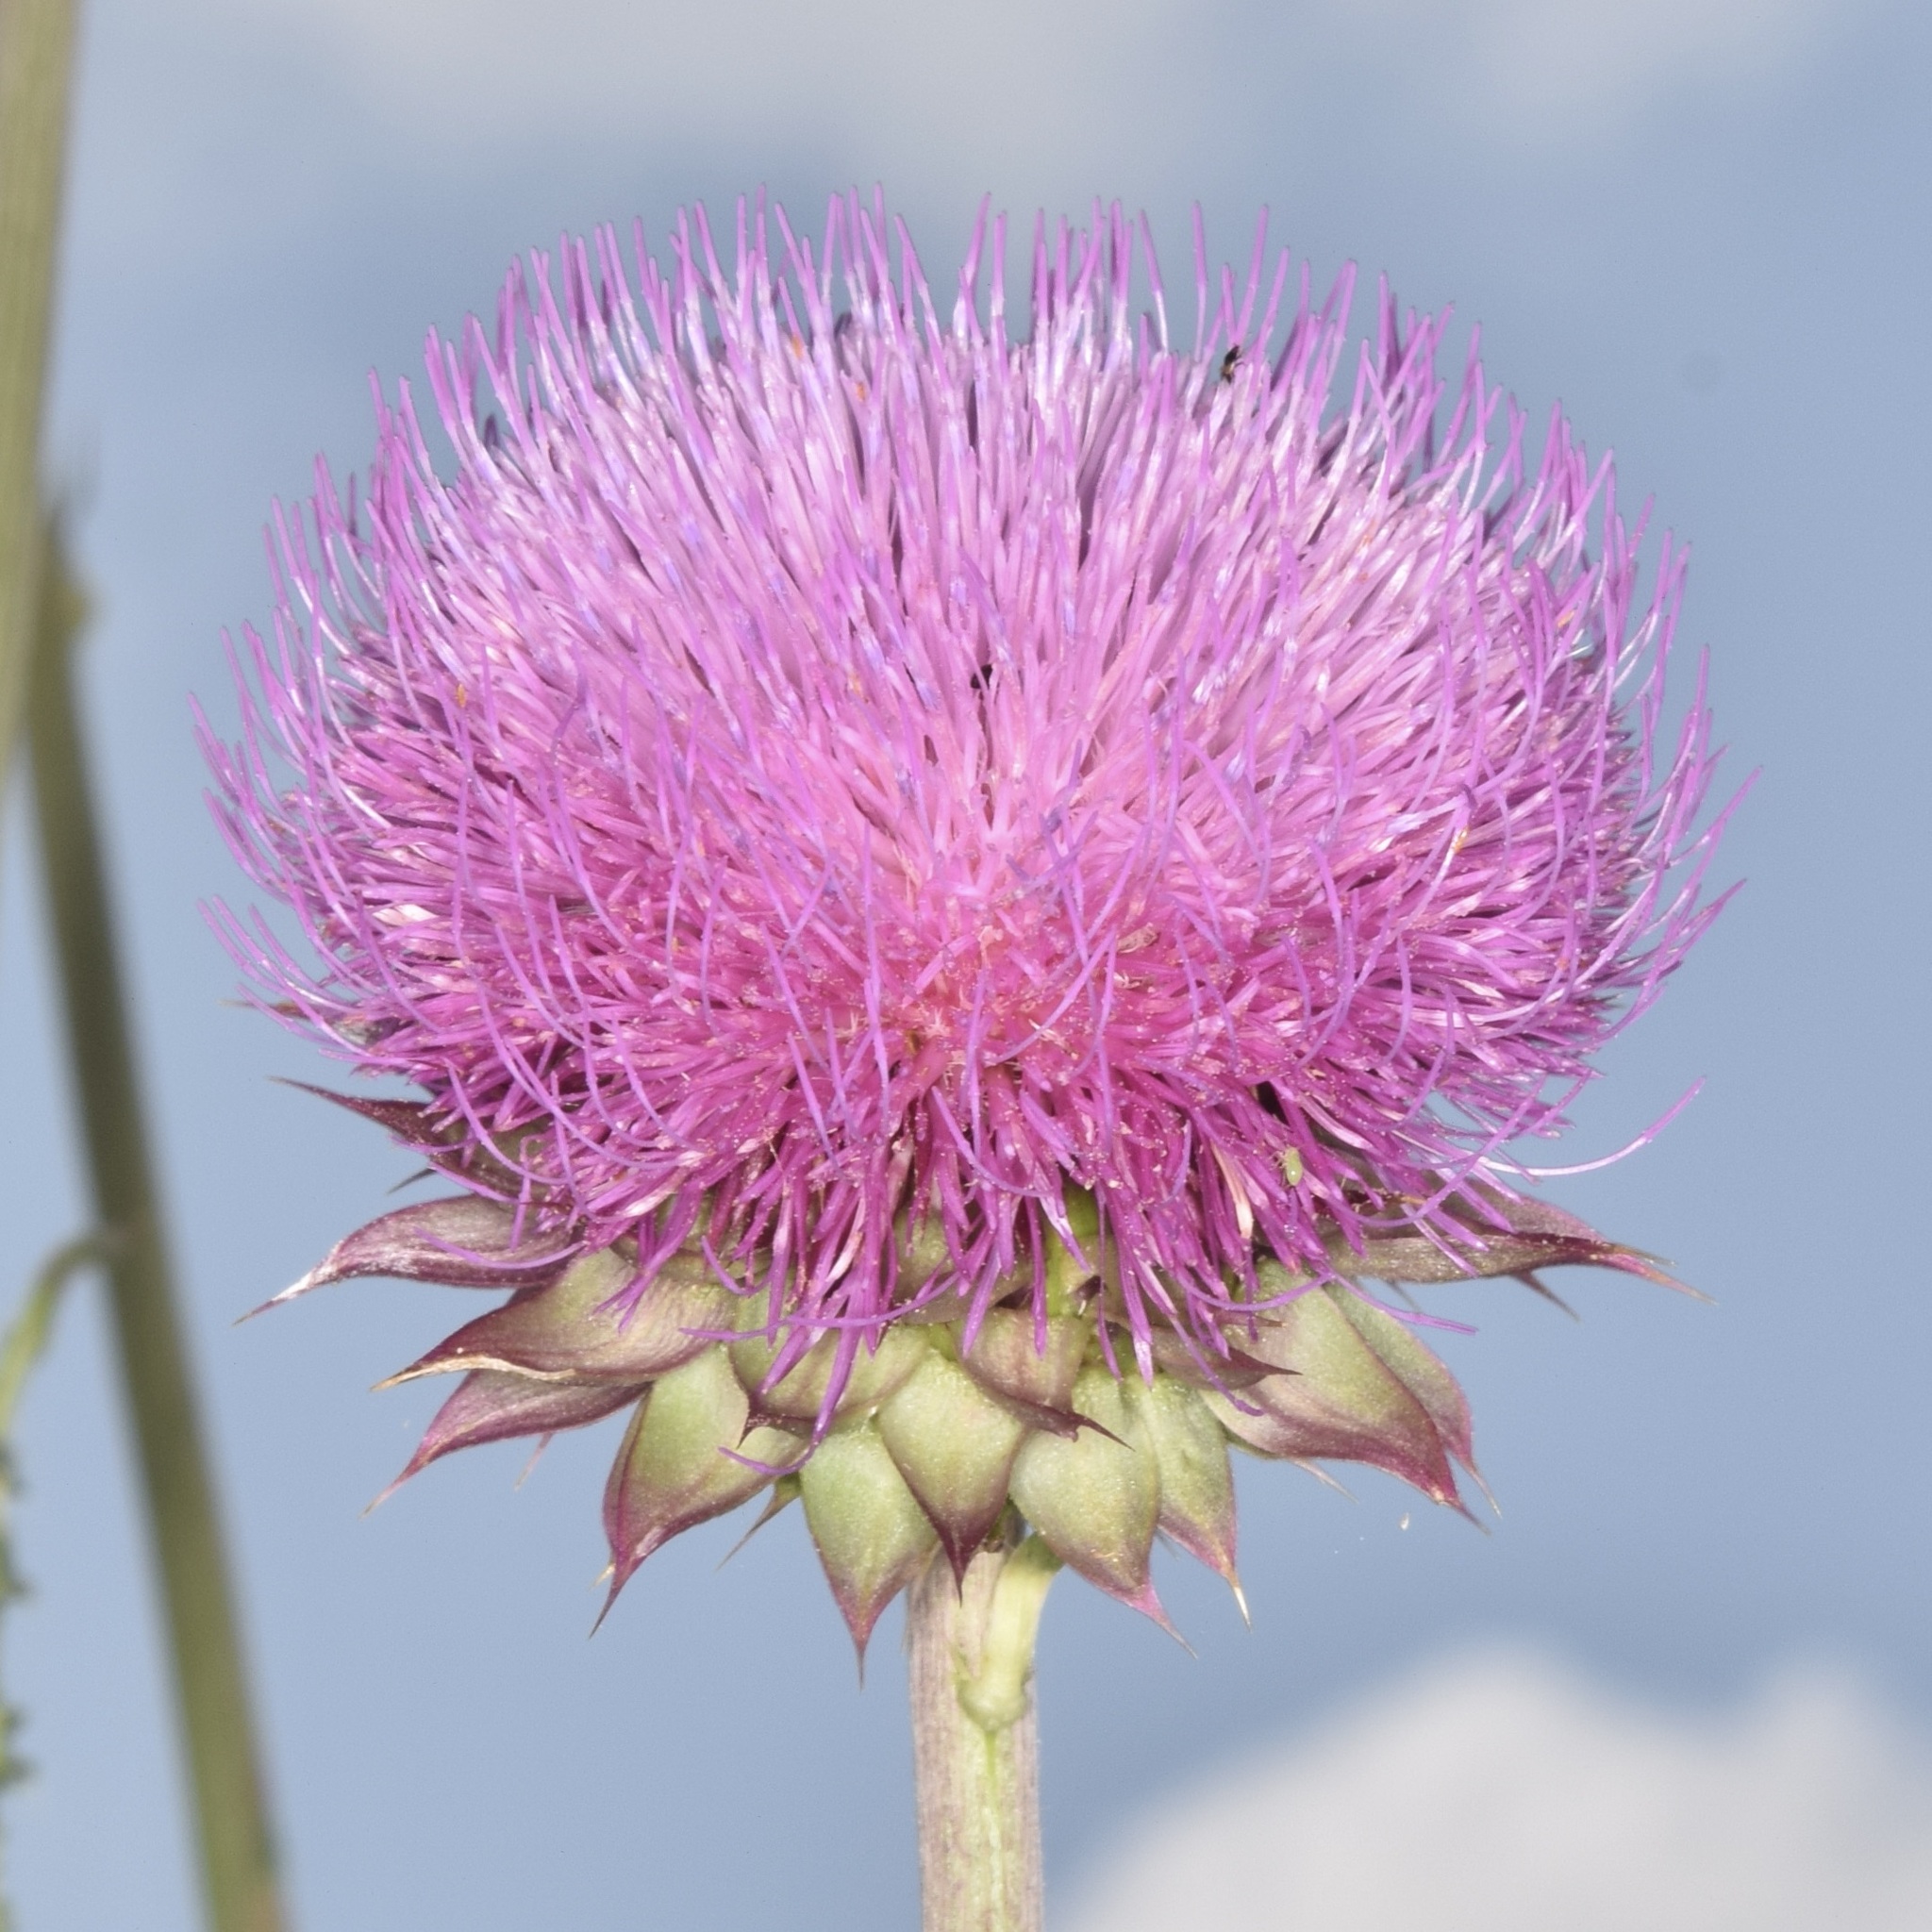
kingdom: Plantae
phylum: Tracheophyta
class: Magnoliopsida
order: Asterales
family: Asteraceae
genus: Carduus
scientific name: Carduus nutans
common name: Musk thistle
